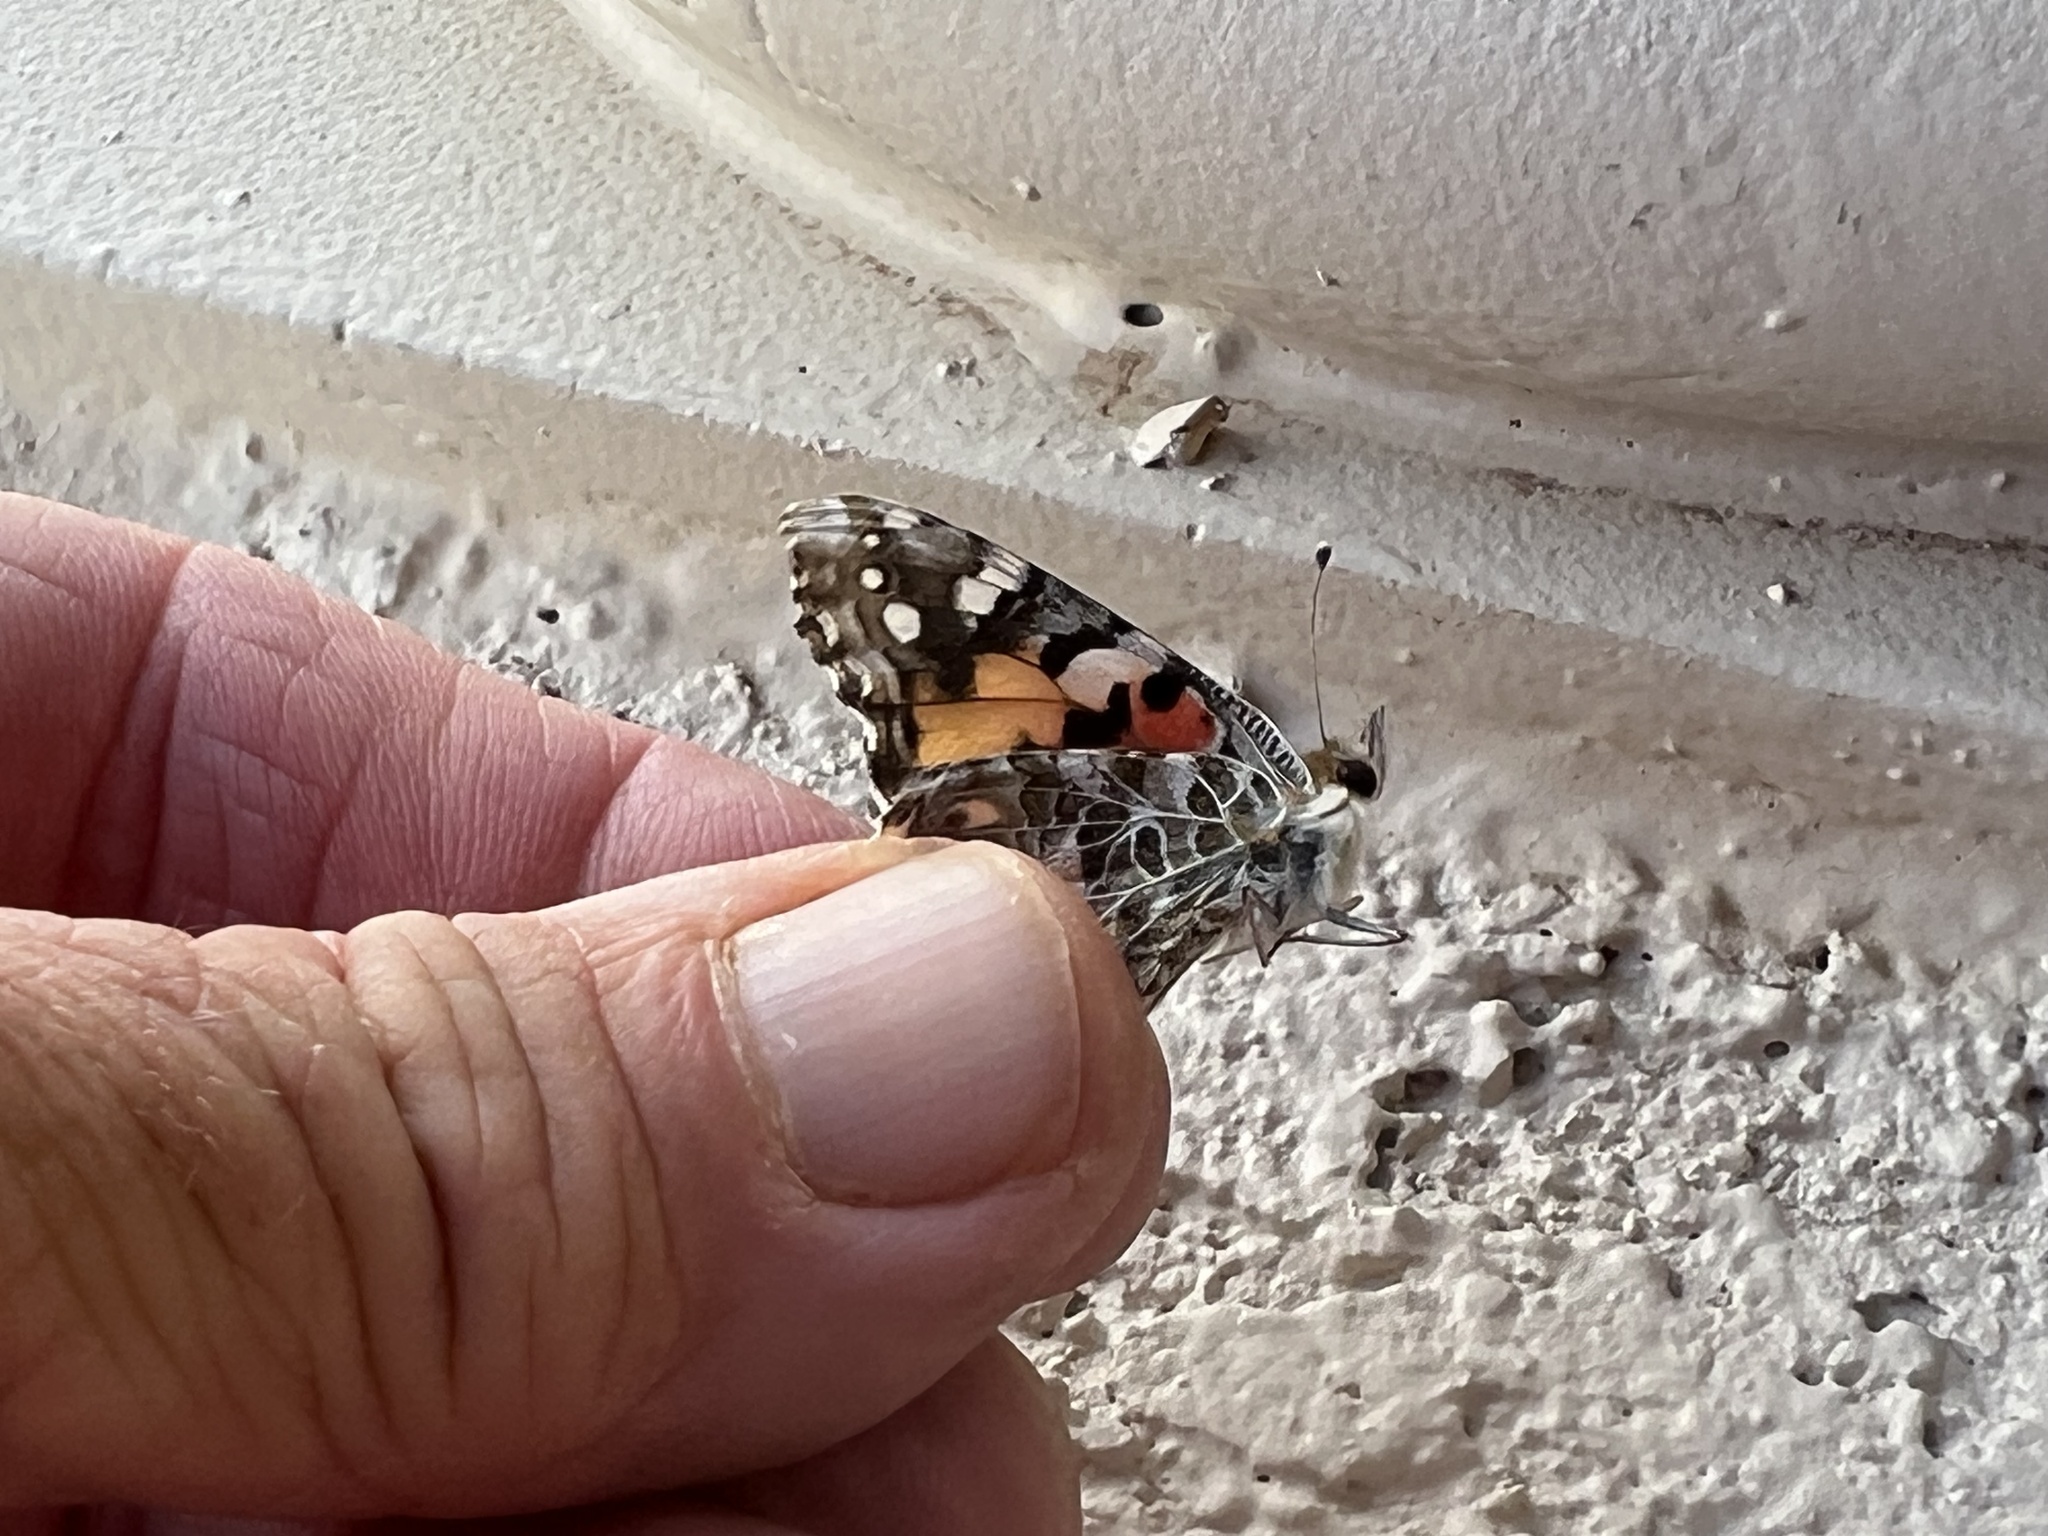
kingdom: Animalia
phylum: Arthropoda
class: Insecta
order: Lepidoptera
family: Nymphalidae
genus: Vanessa
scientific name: Vanessa cardui
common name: Painted lady
